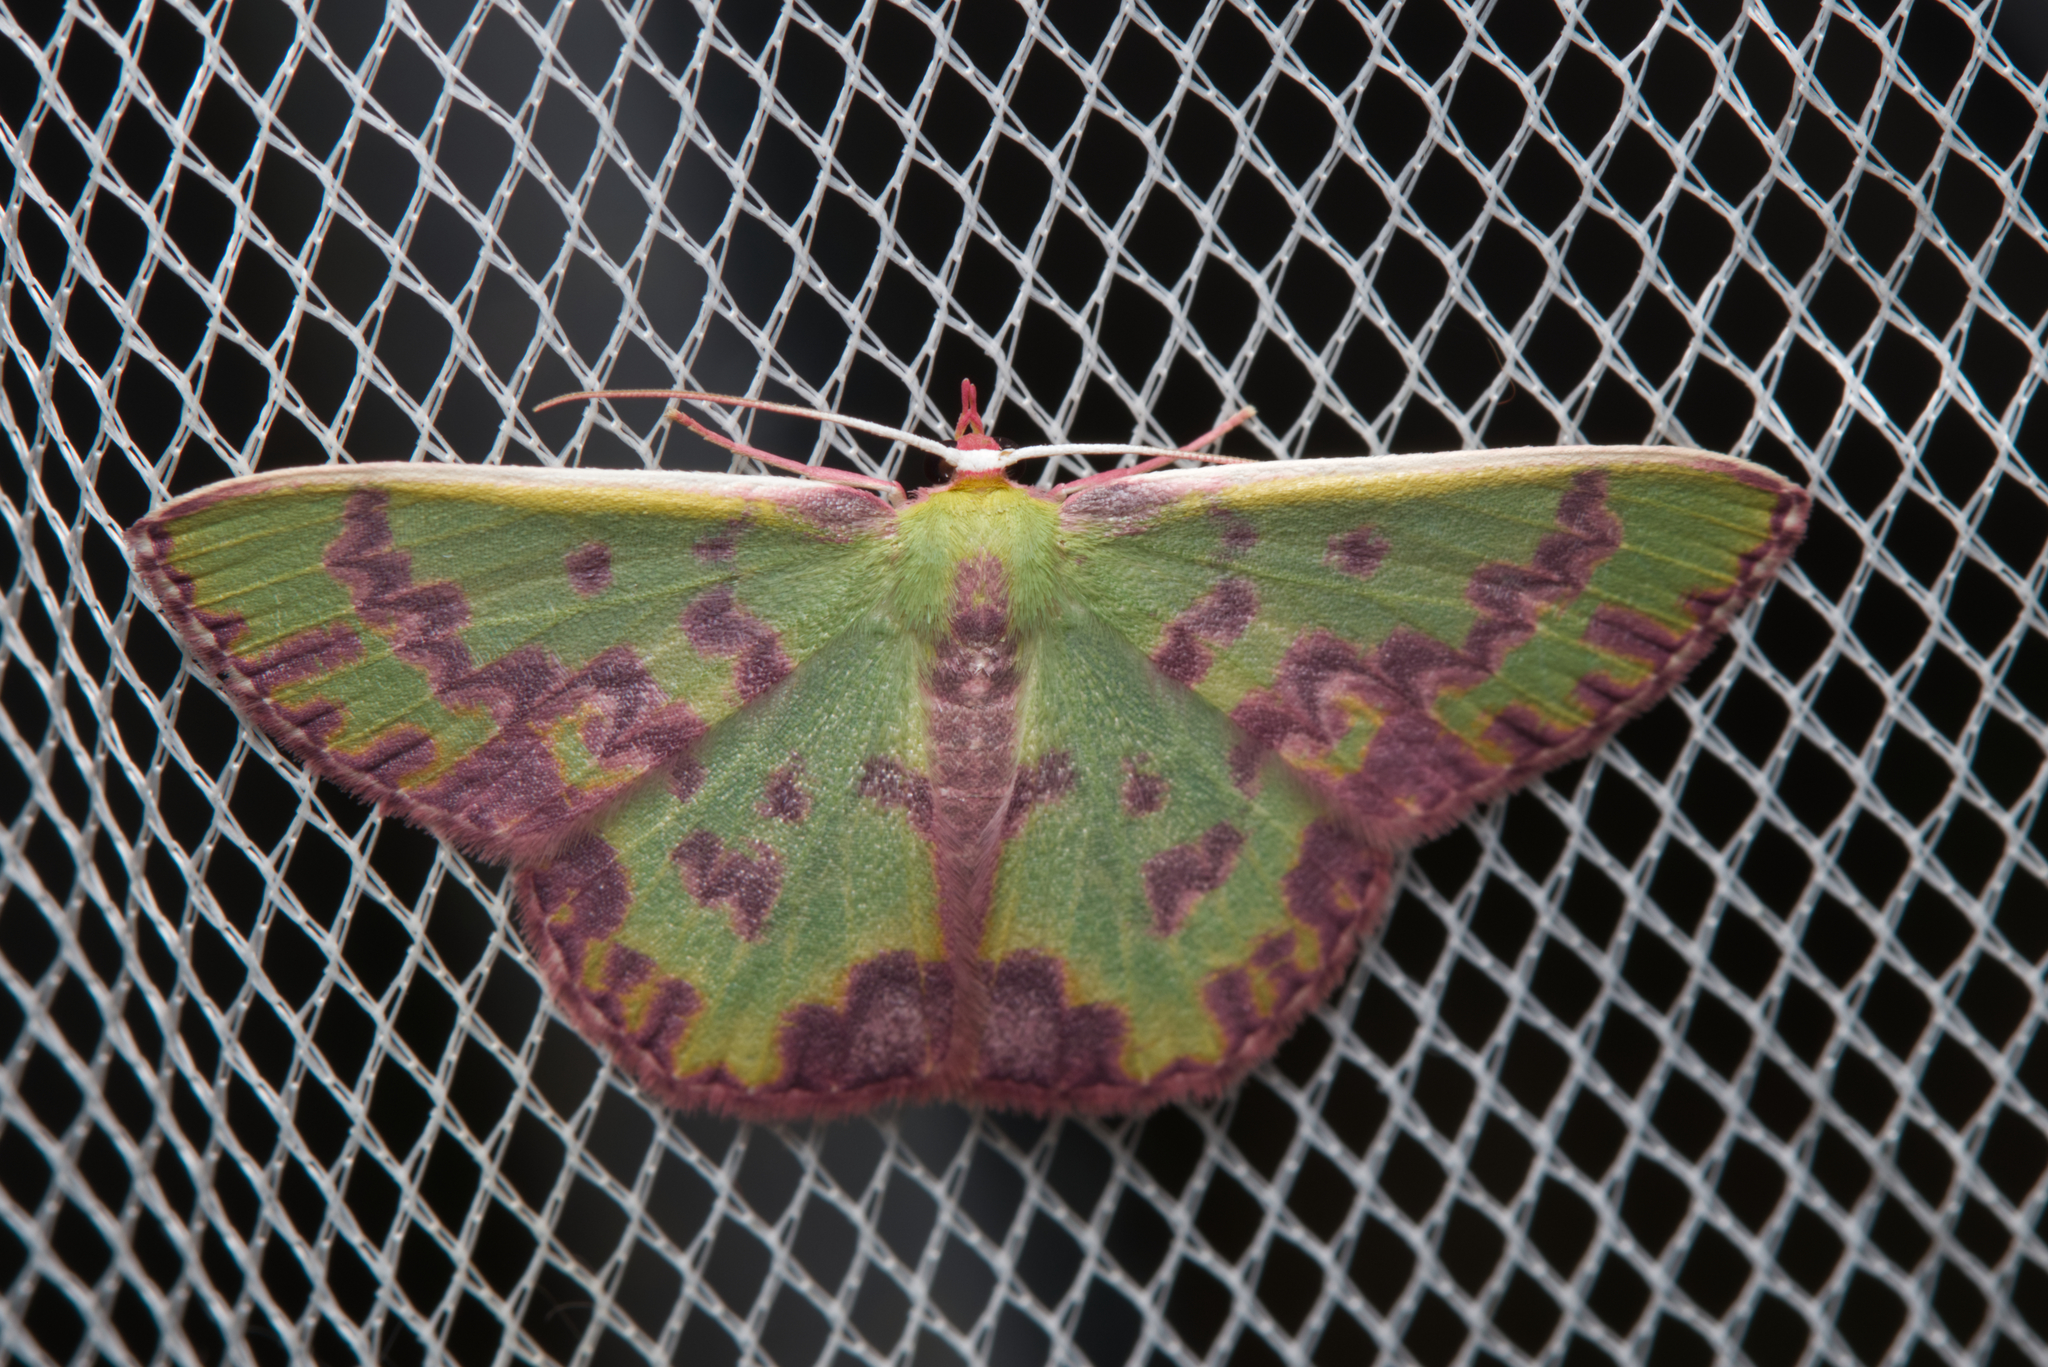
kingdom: Animalia
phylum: Arthropoda
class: Insecta
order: Lepidoptera
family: Geometridae
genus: Prasinocyma
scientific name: Prasinocyma rhodocosma
